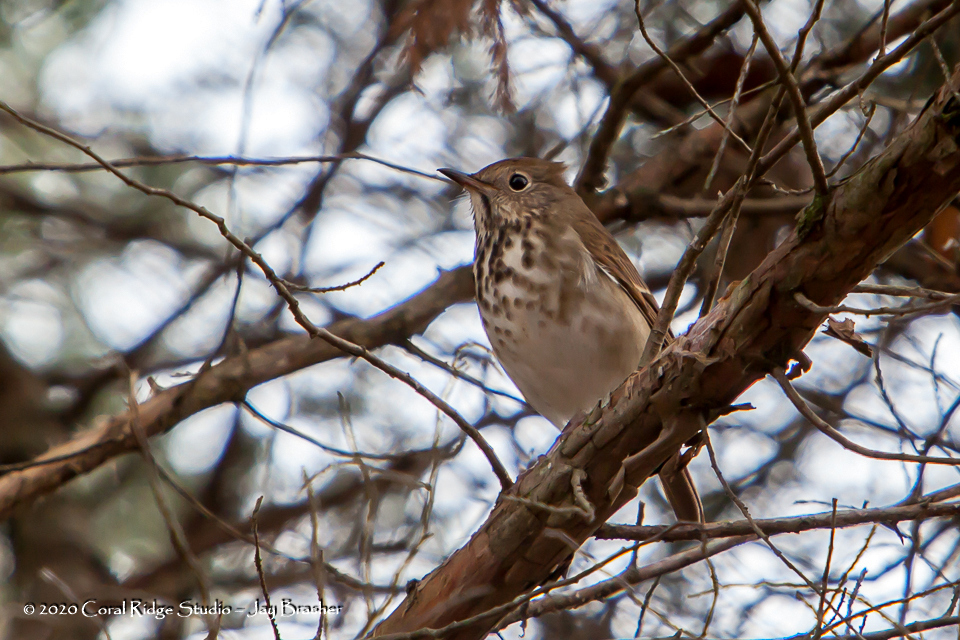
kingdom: Animalia
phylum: Chordata
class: Aves
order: Passeriformes
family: Turdidae
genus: Catharus
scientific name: Catharus guttatus
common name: Hermit thrush
